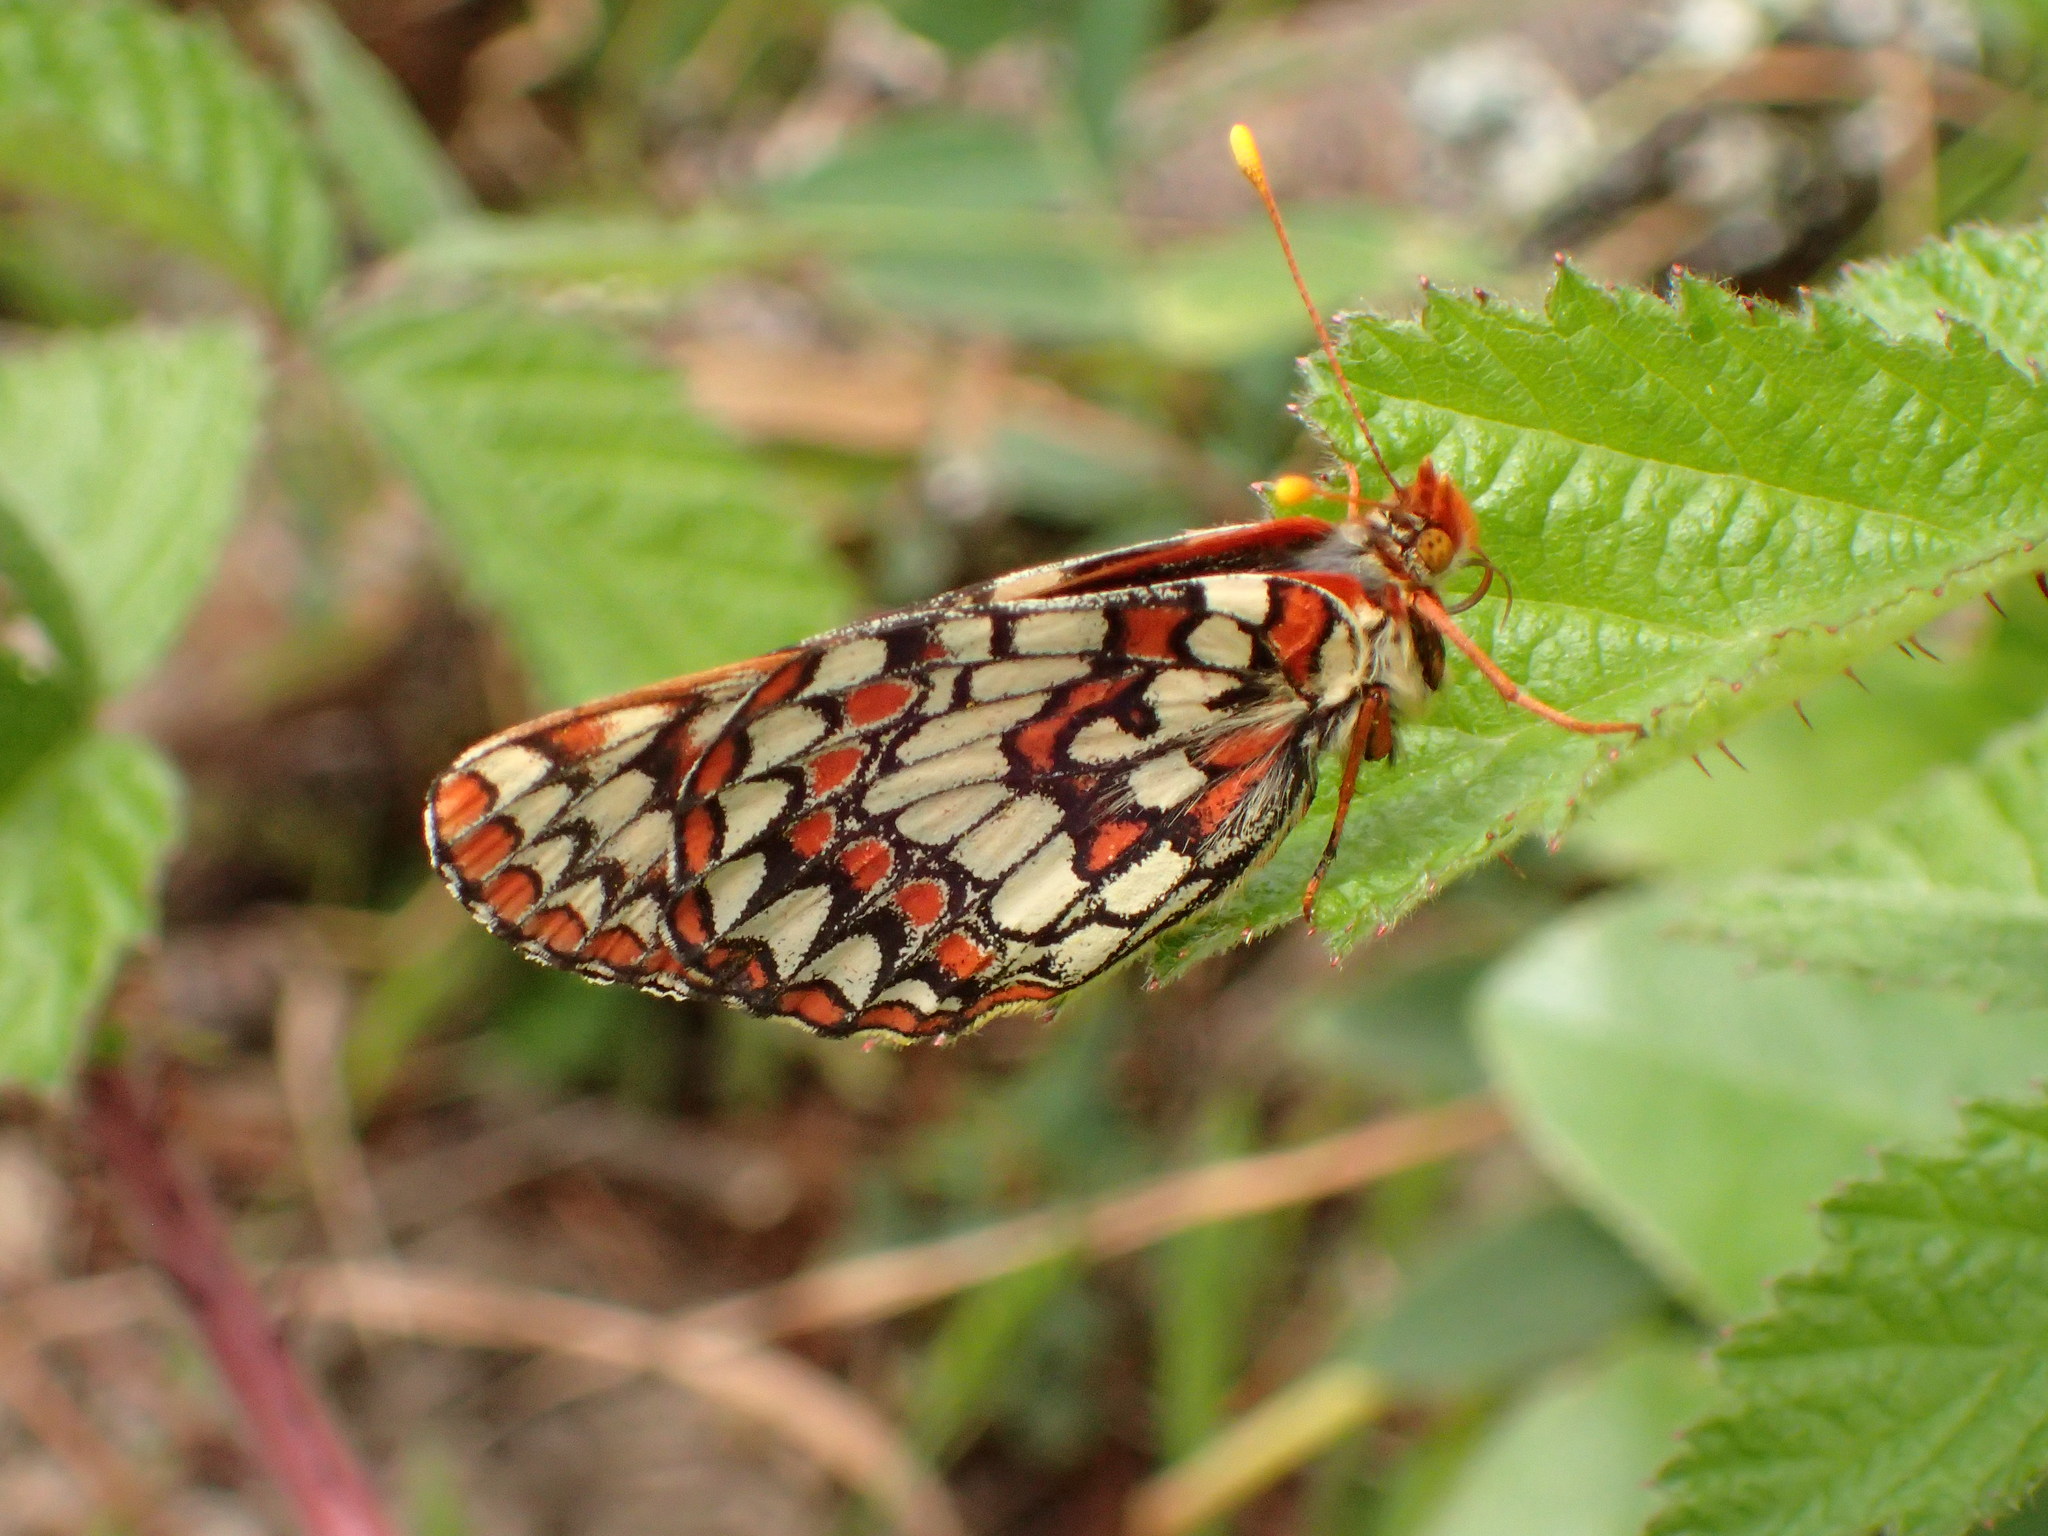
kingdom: Animalia
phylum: Arthropoda
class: Insecta
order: Lepidoptera
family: Nymphalidae
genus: Occidryas
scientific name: Occidryas chalcedona
